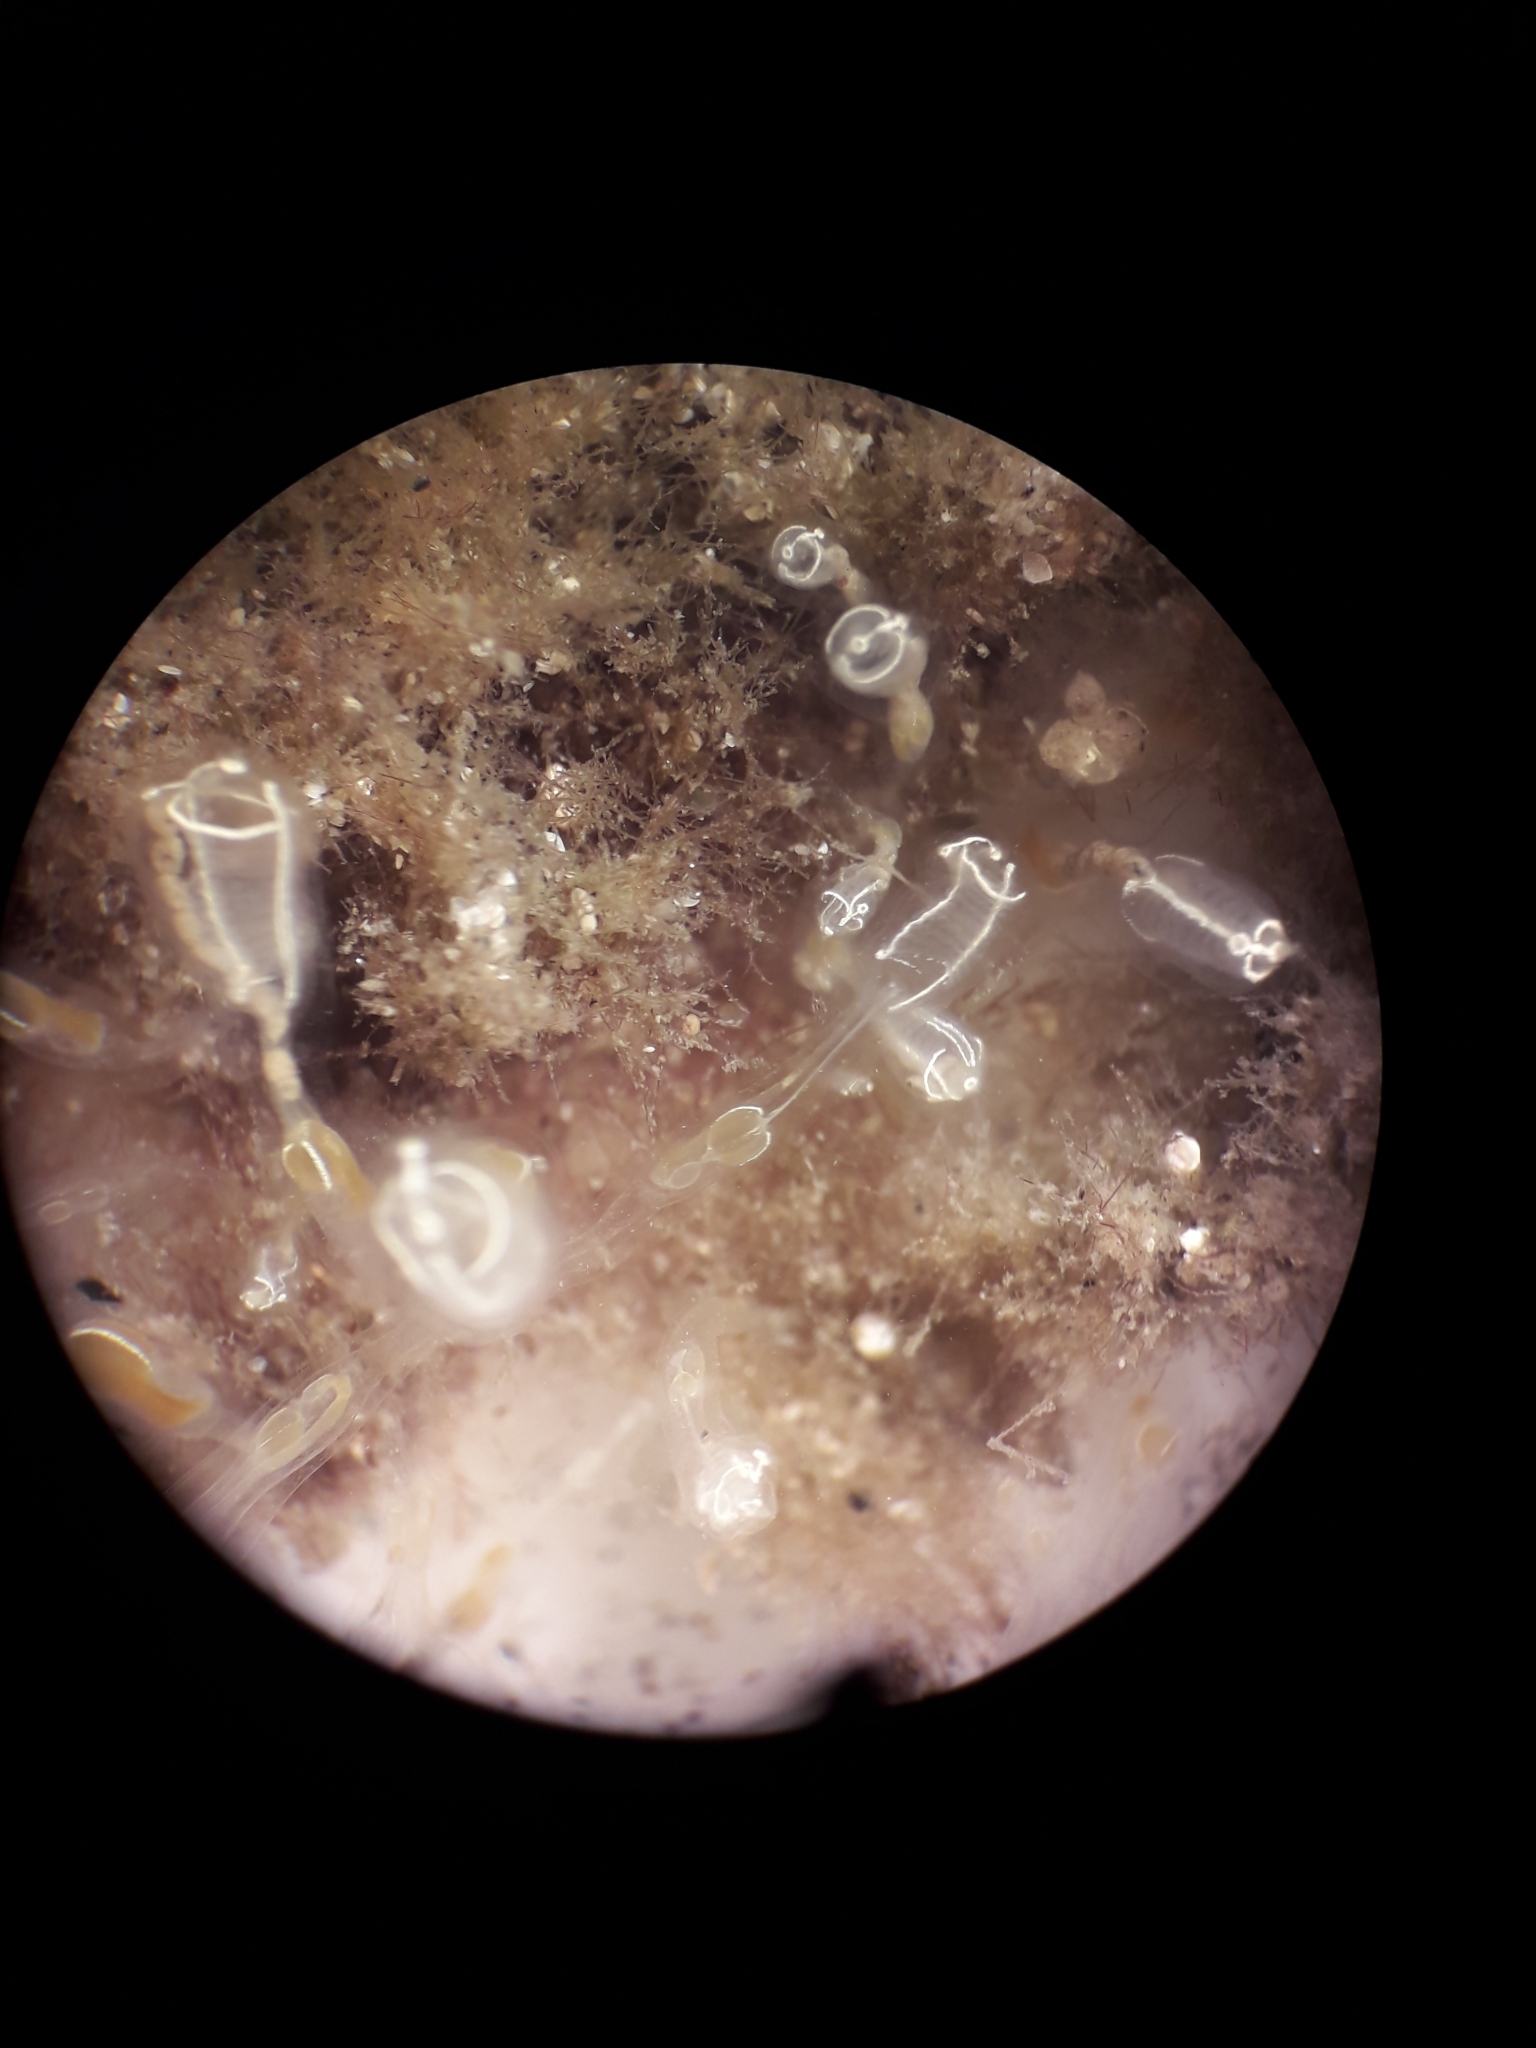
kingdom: Animalia
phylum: Chordata
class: Ascidiacea
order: Aplousobranchia
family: Clavelinidae
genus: Clavelina
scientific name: Clavelina lepadiformis
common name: Light bulb tunicate
